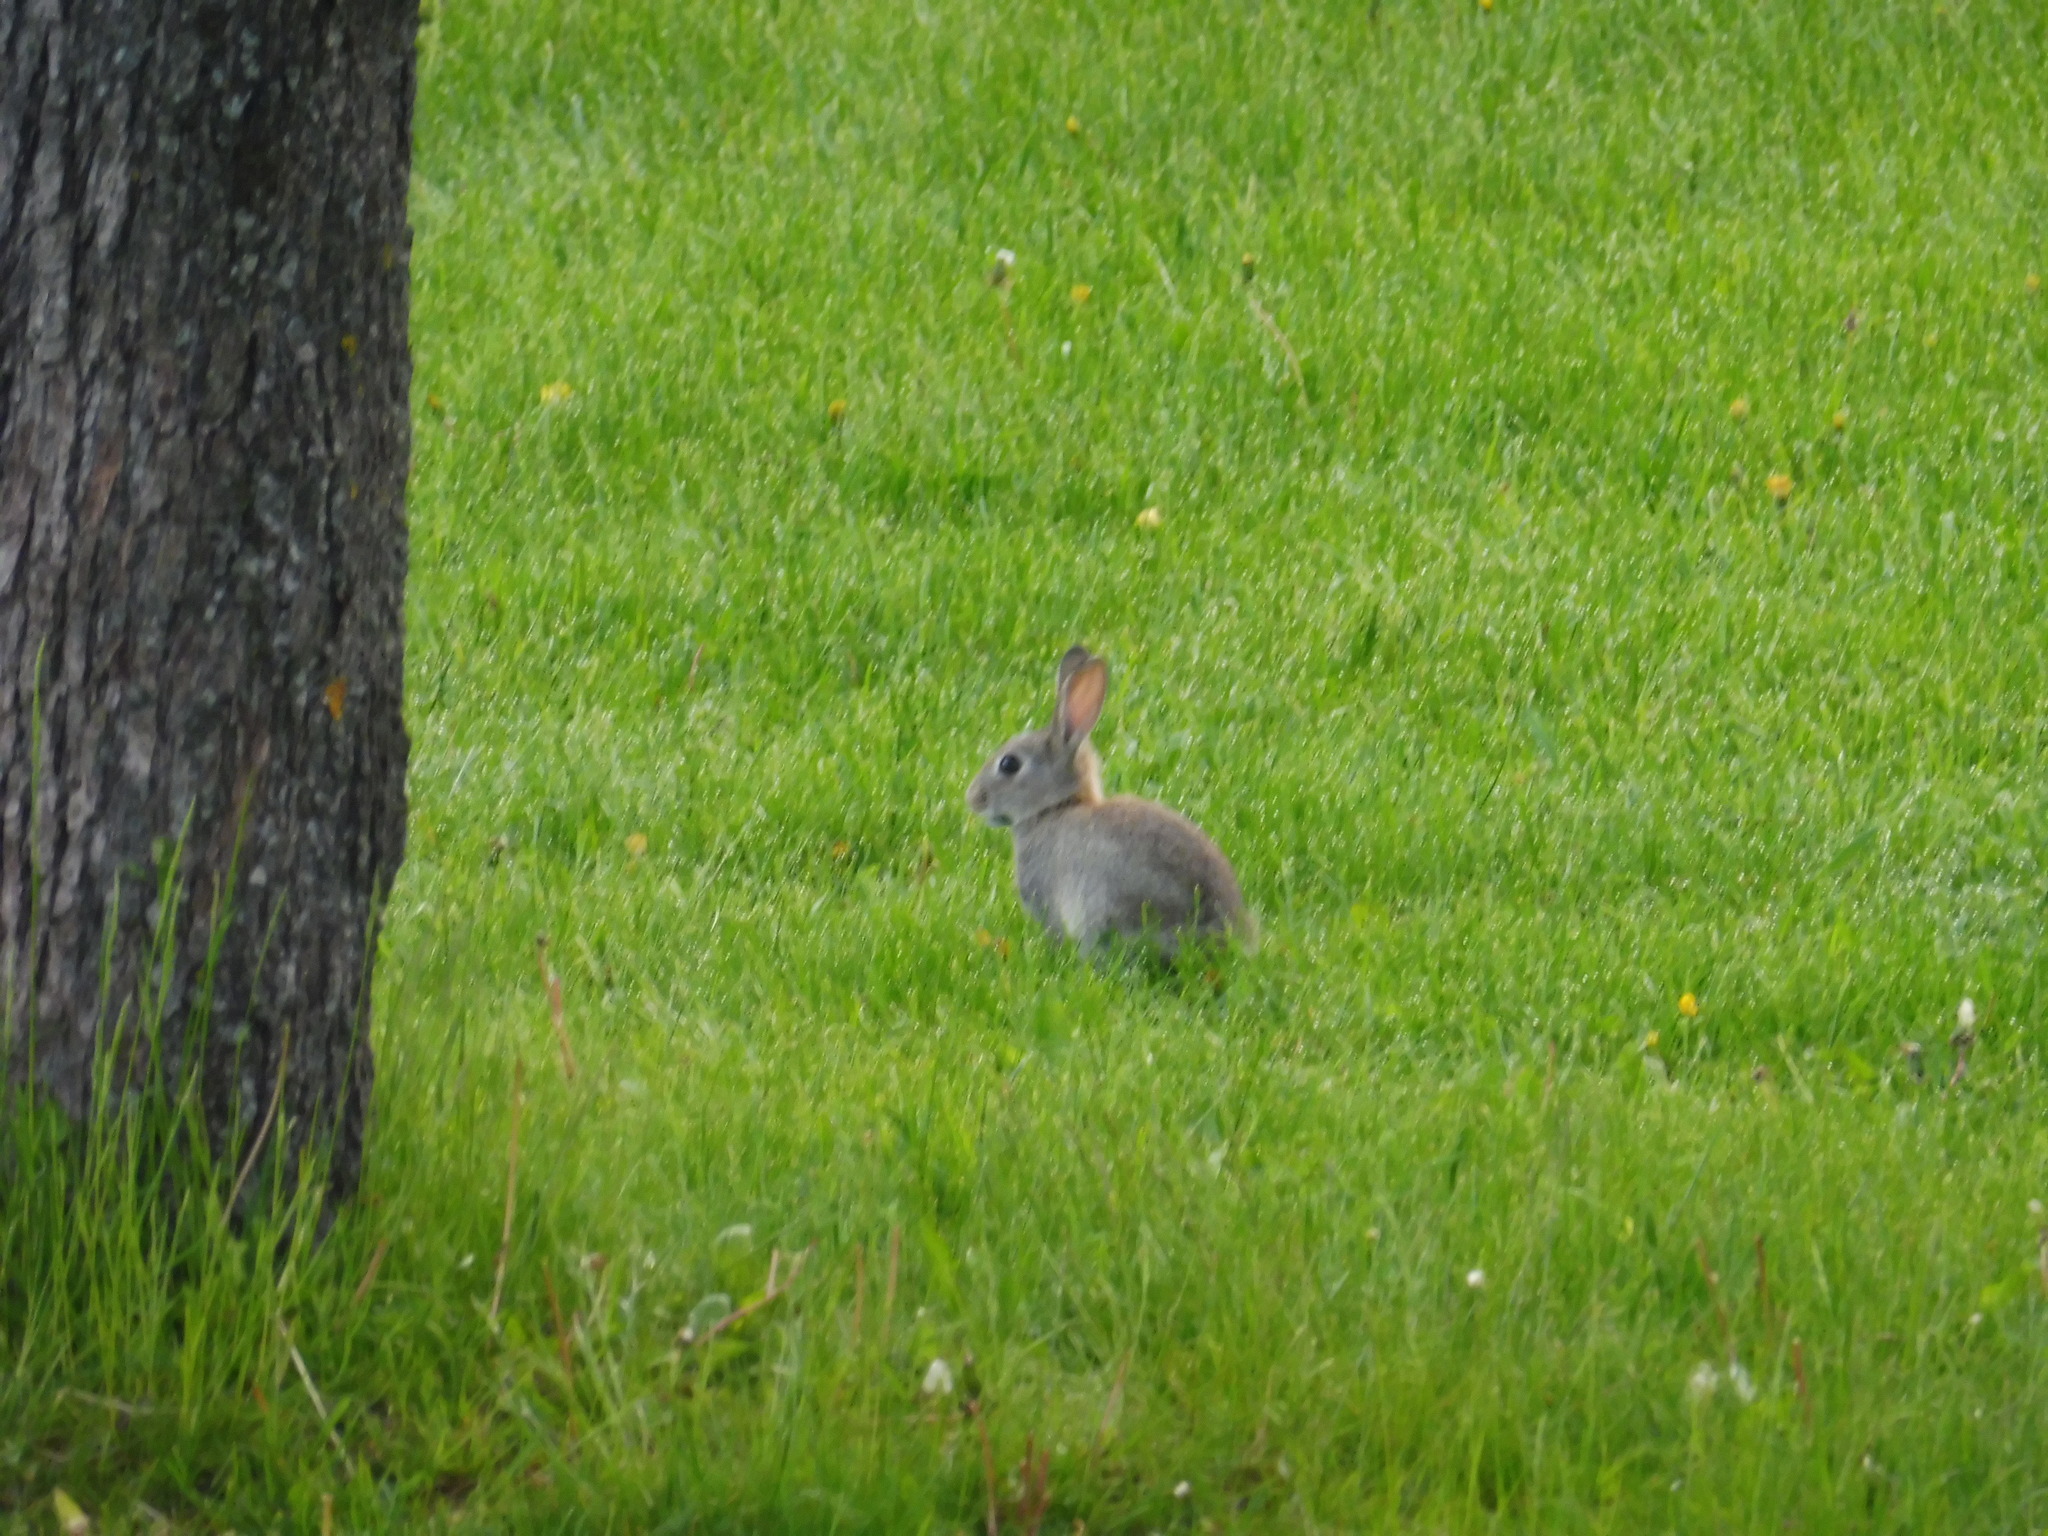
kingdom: Animalia
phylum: Chordata
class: Mammalia
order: Lagomorpha
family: Leporidae
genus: Oryctolagus
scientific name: Oryctolagus cuniculus
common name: European rabbit
